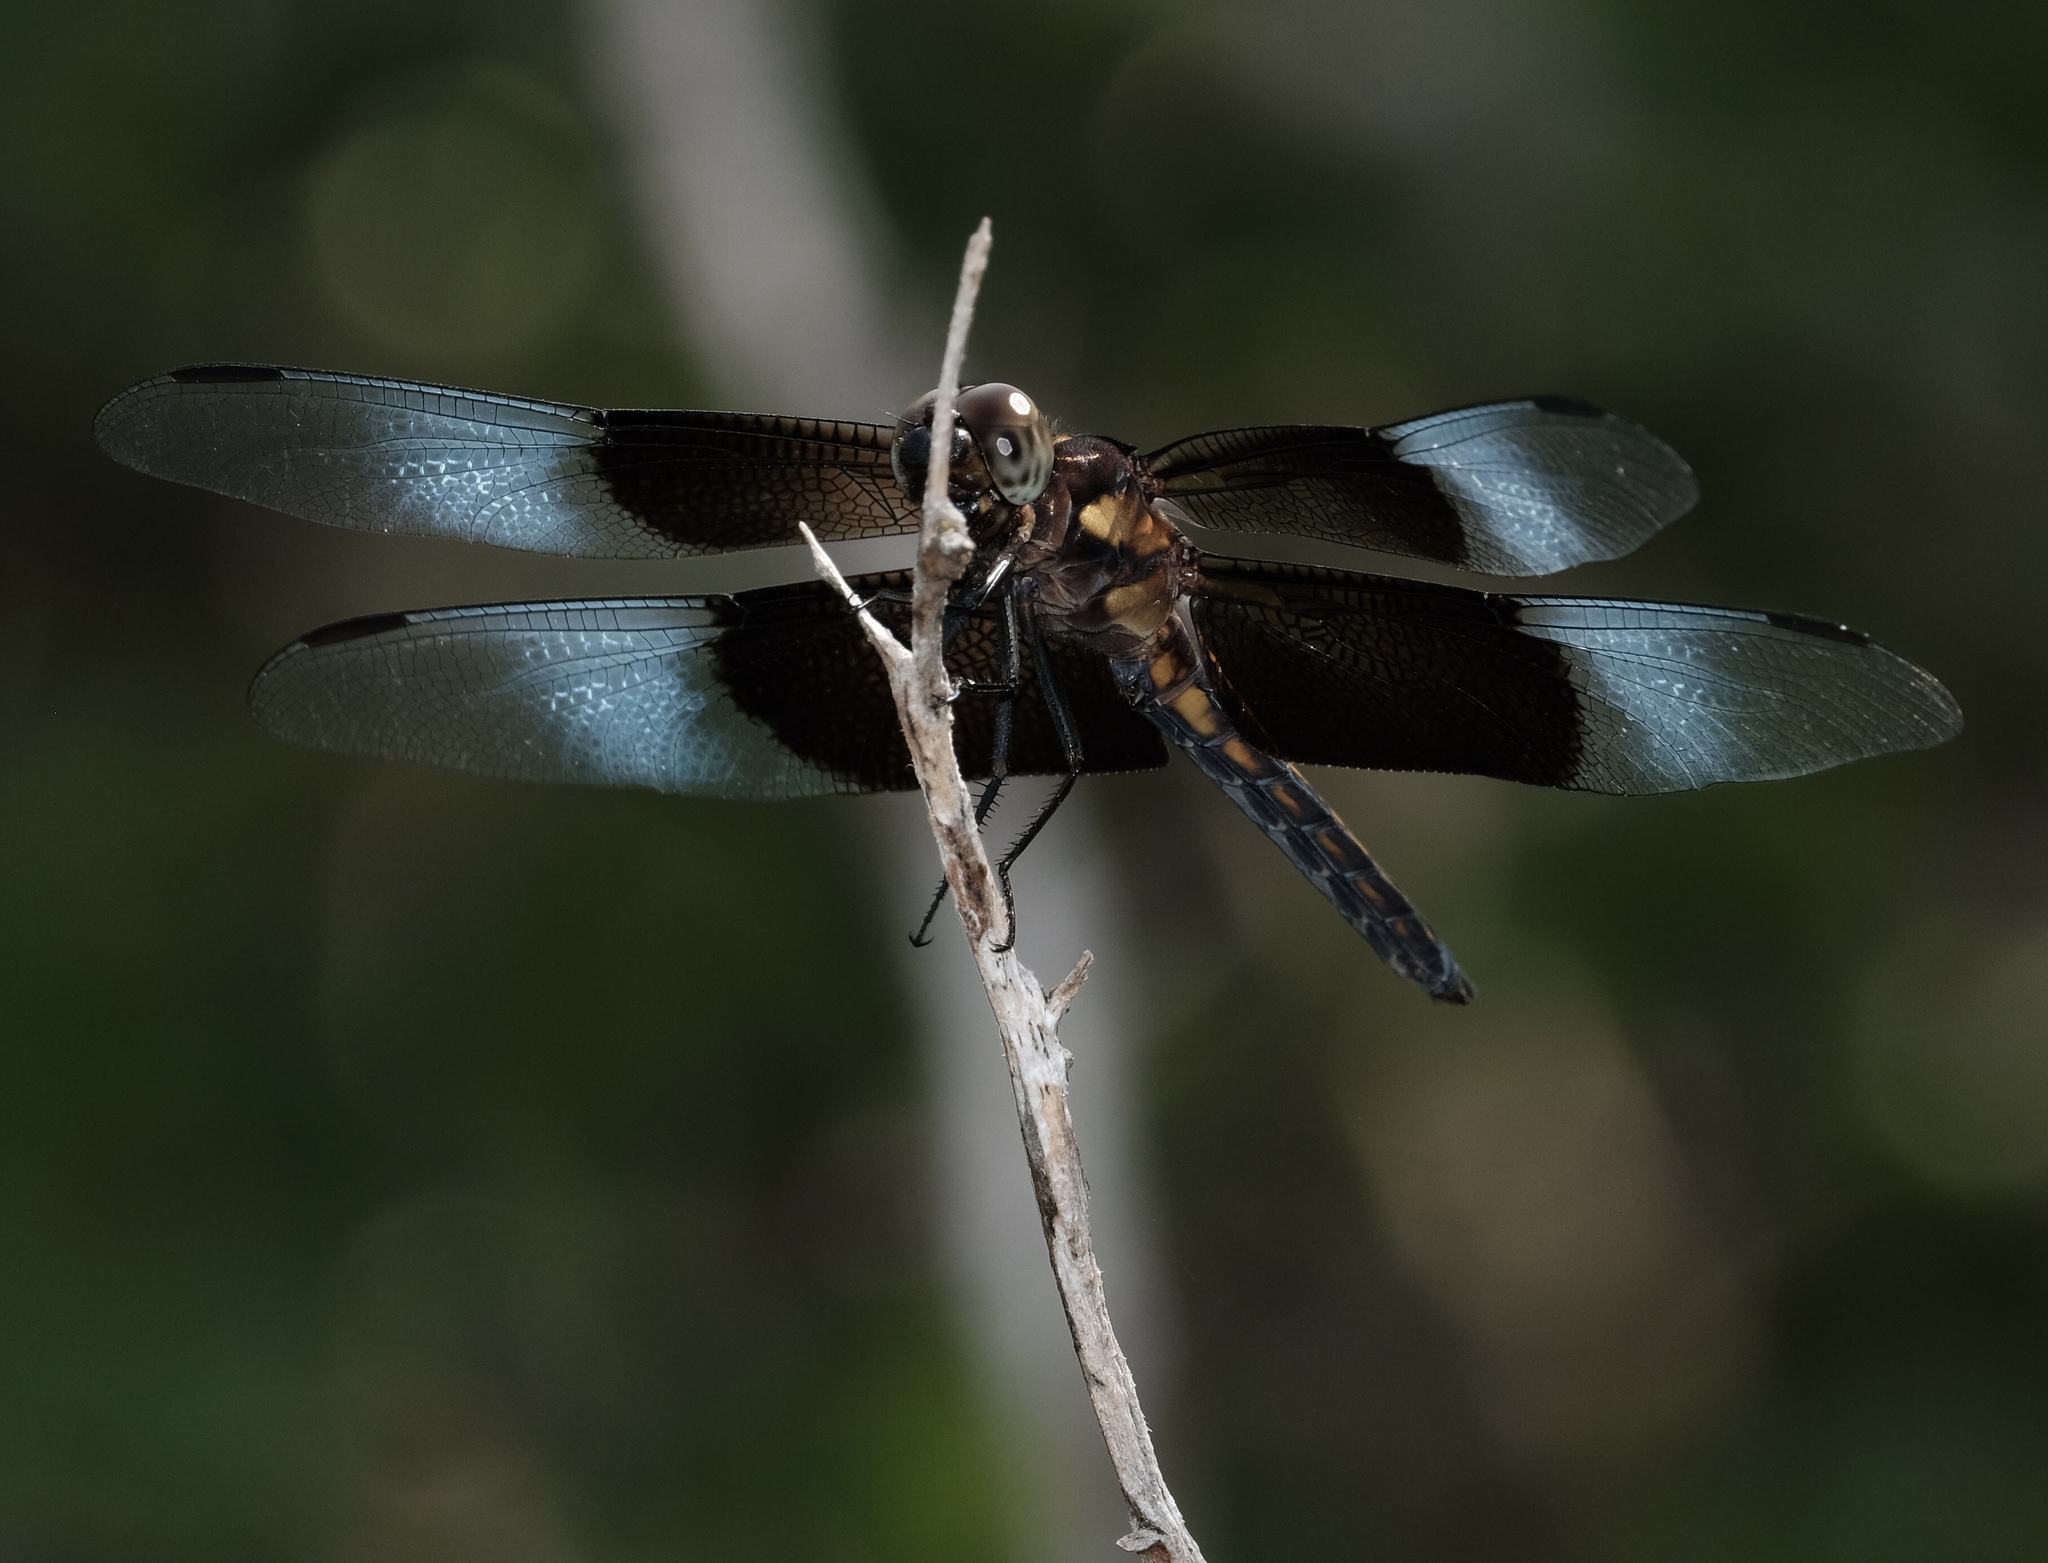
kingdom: Animalia
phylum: Arthropoda
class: Insecta
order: Odonata
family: Libellulidae
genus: Libellula
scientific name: Libellula luctuosa
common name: Widow skimmer
